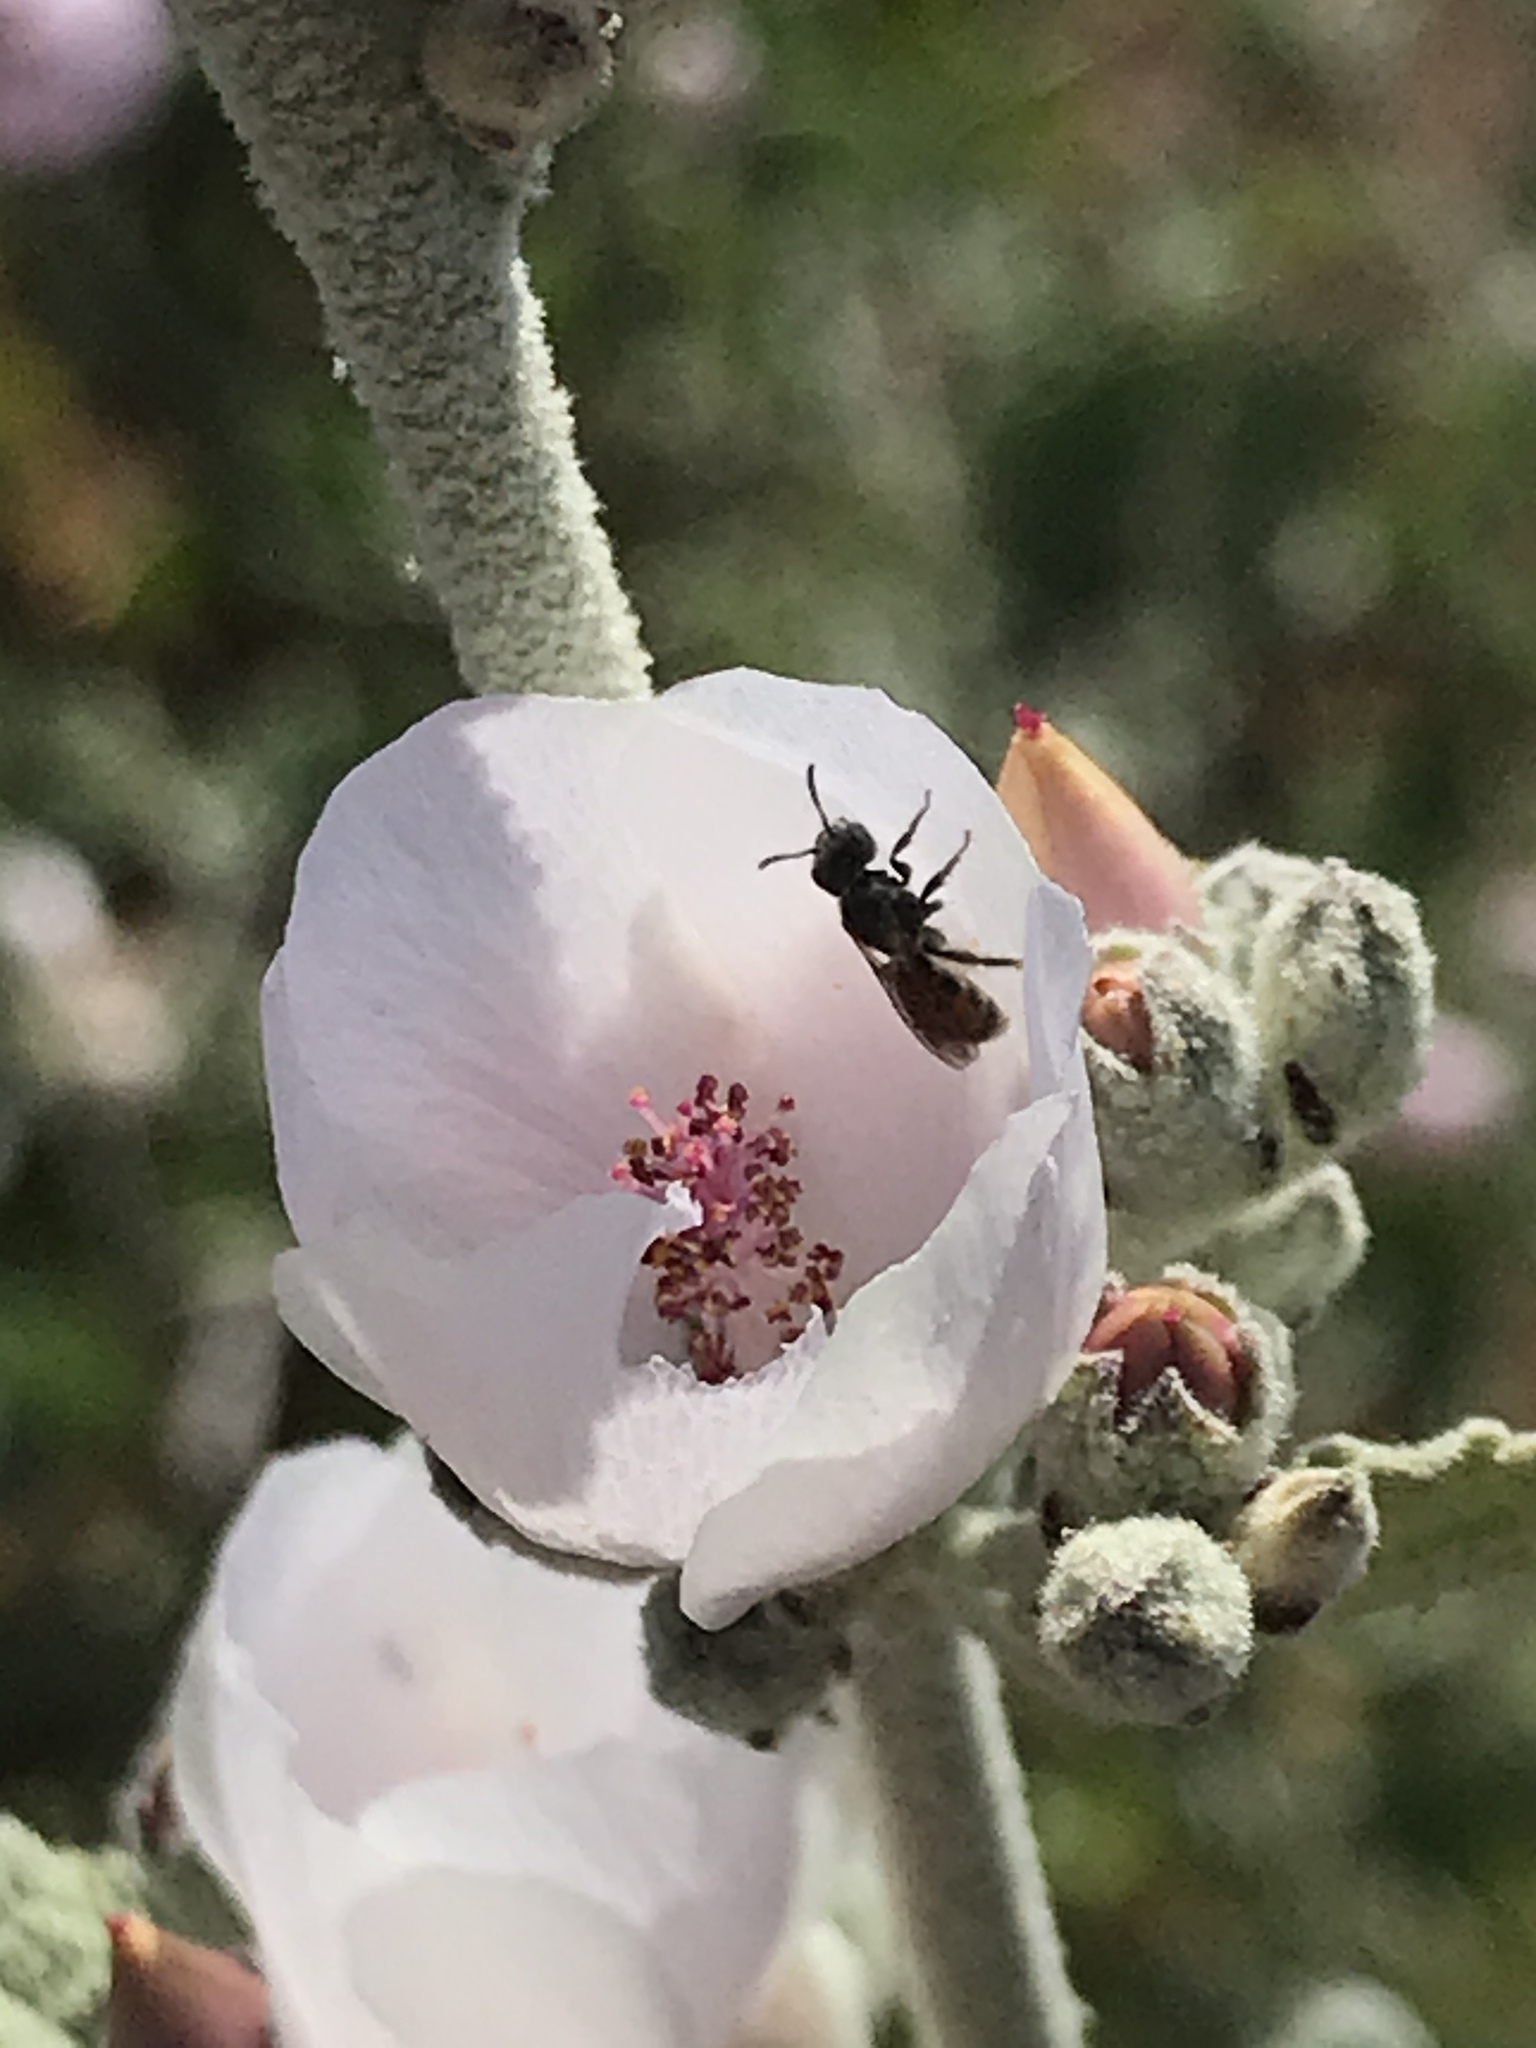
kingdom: Plantae
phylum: Tracheophyta
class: Magnoliopsida
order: Malvales
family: Malvaceae
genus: Malacothamnus
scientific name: Malacothamnus fasciculatus
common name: Sant cruz island bush-mallow
